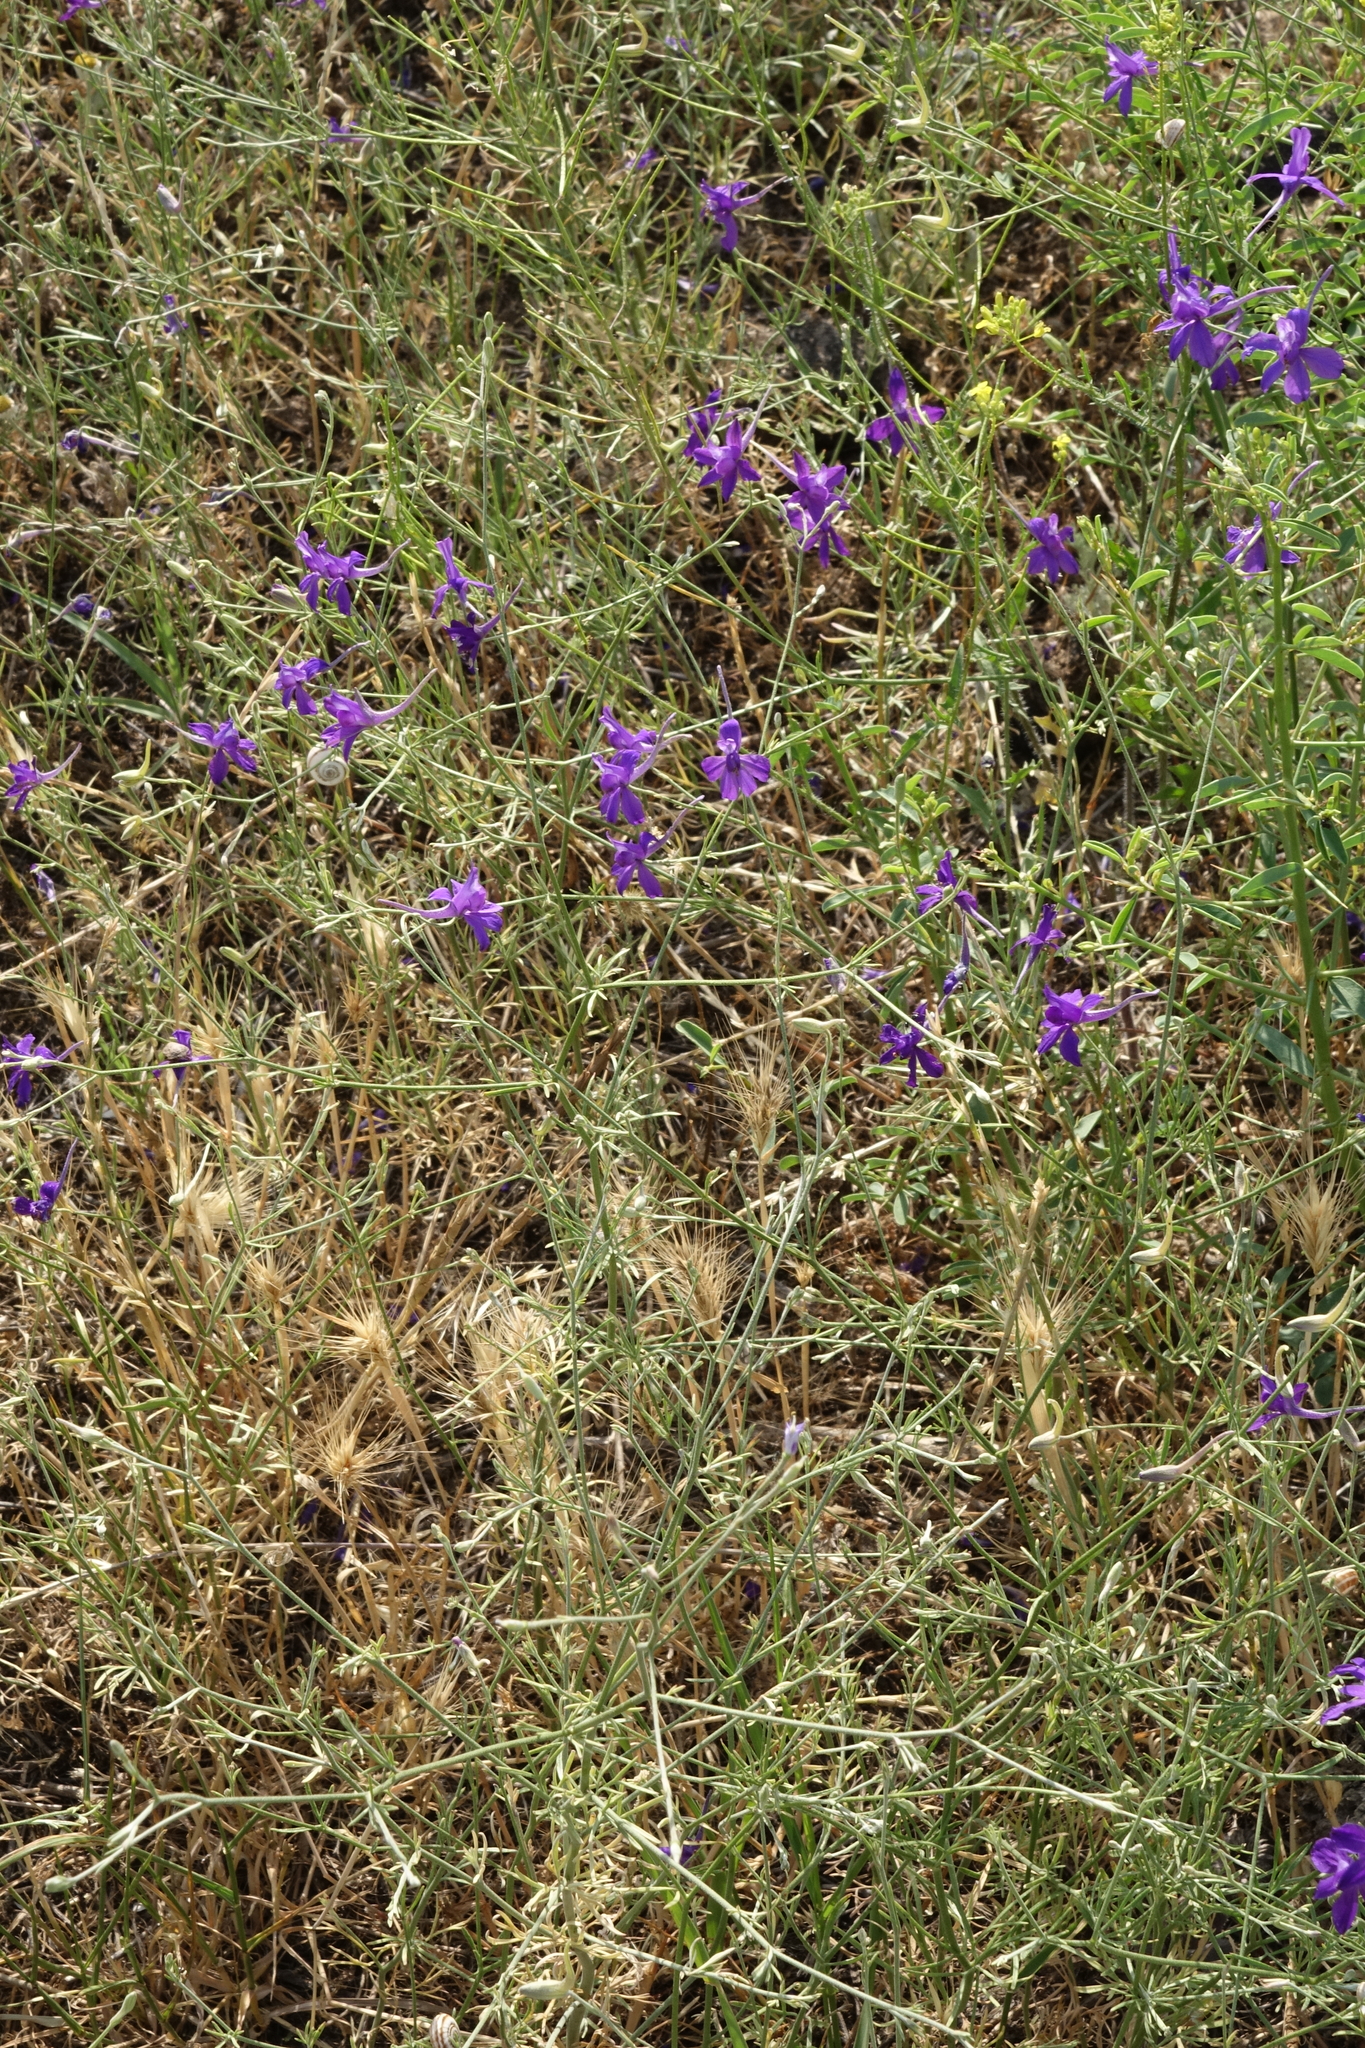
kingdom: Plantae
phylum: Tracheophyta
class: Magnoliopsida
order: Ranunculales
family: Ranunculaceae
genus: Delphinium
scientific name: Delphinium consolida
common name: Branching larkspur
